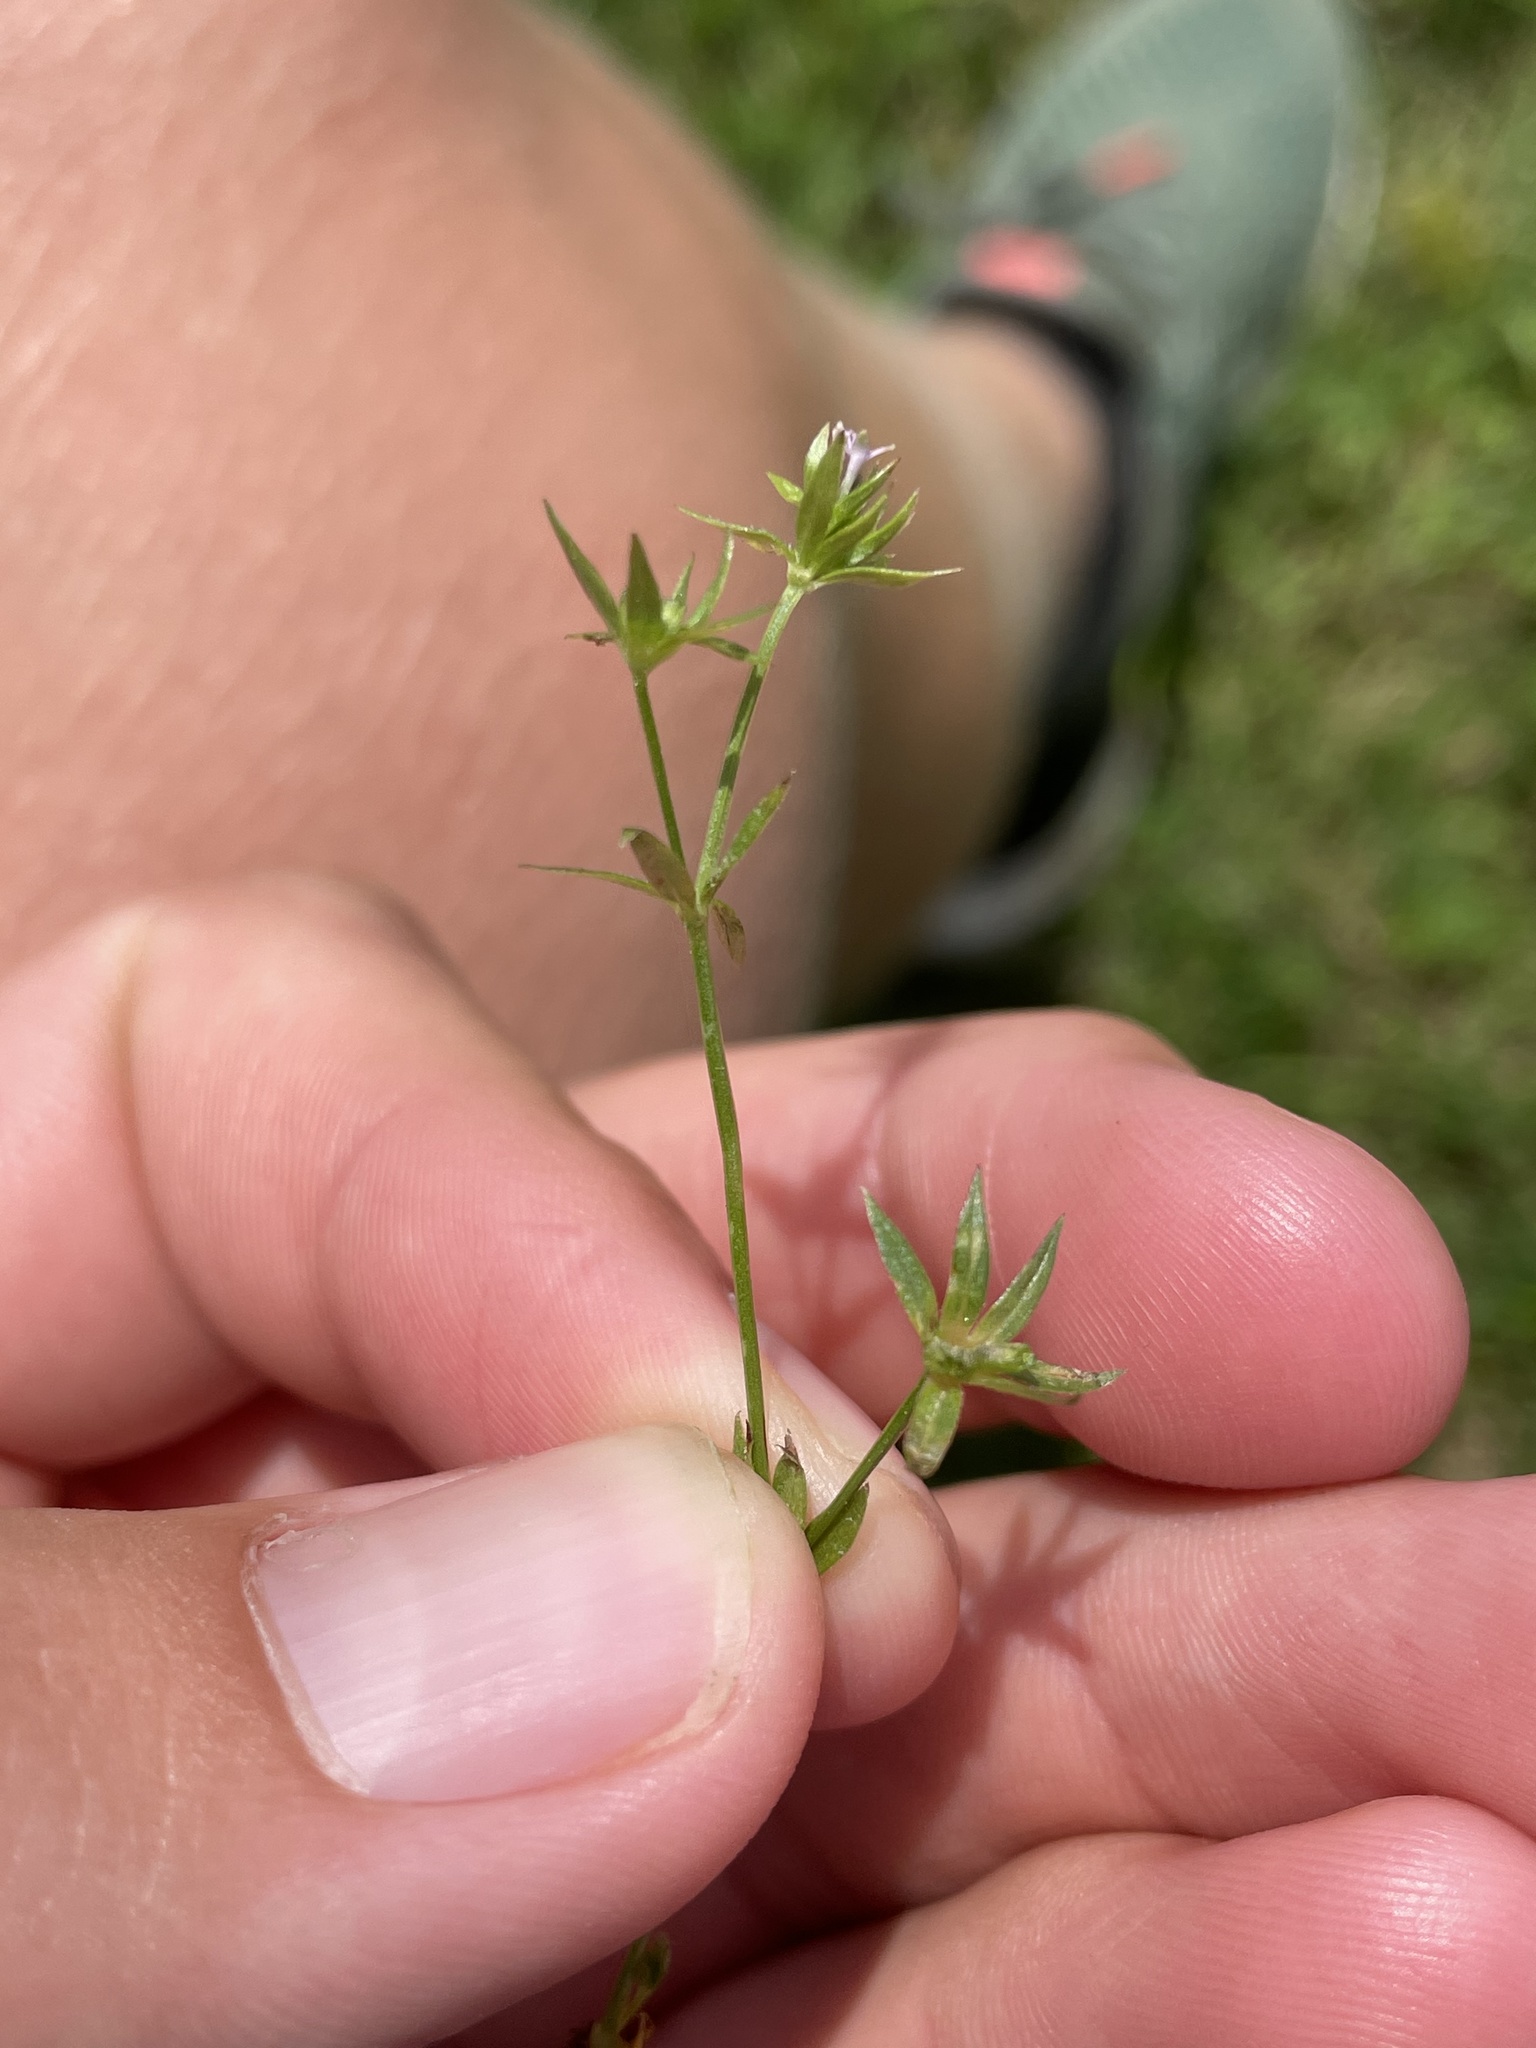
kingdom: Plantae
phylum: Tracheophyta
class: Magnoliopsida
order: Gentianales
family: Rubiaceae
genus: Sherardia
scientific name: Sherardia arvensis
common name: Field madder
